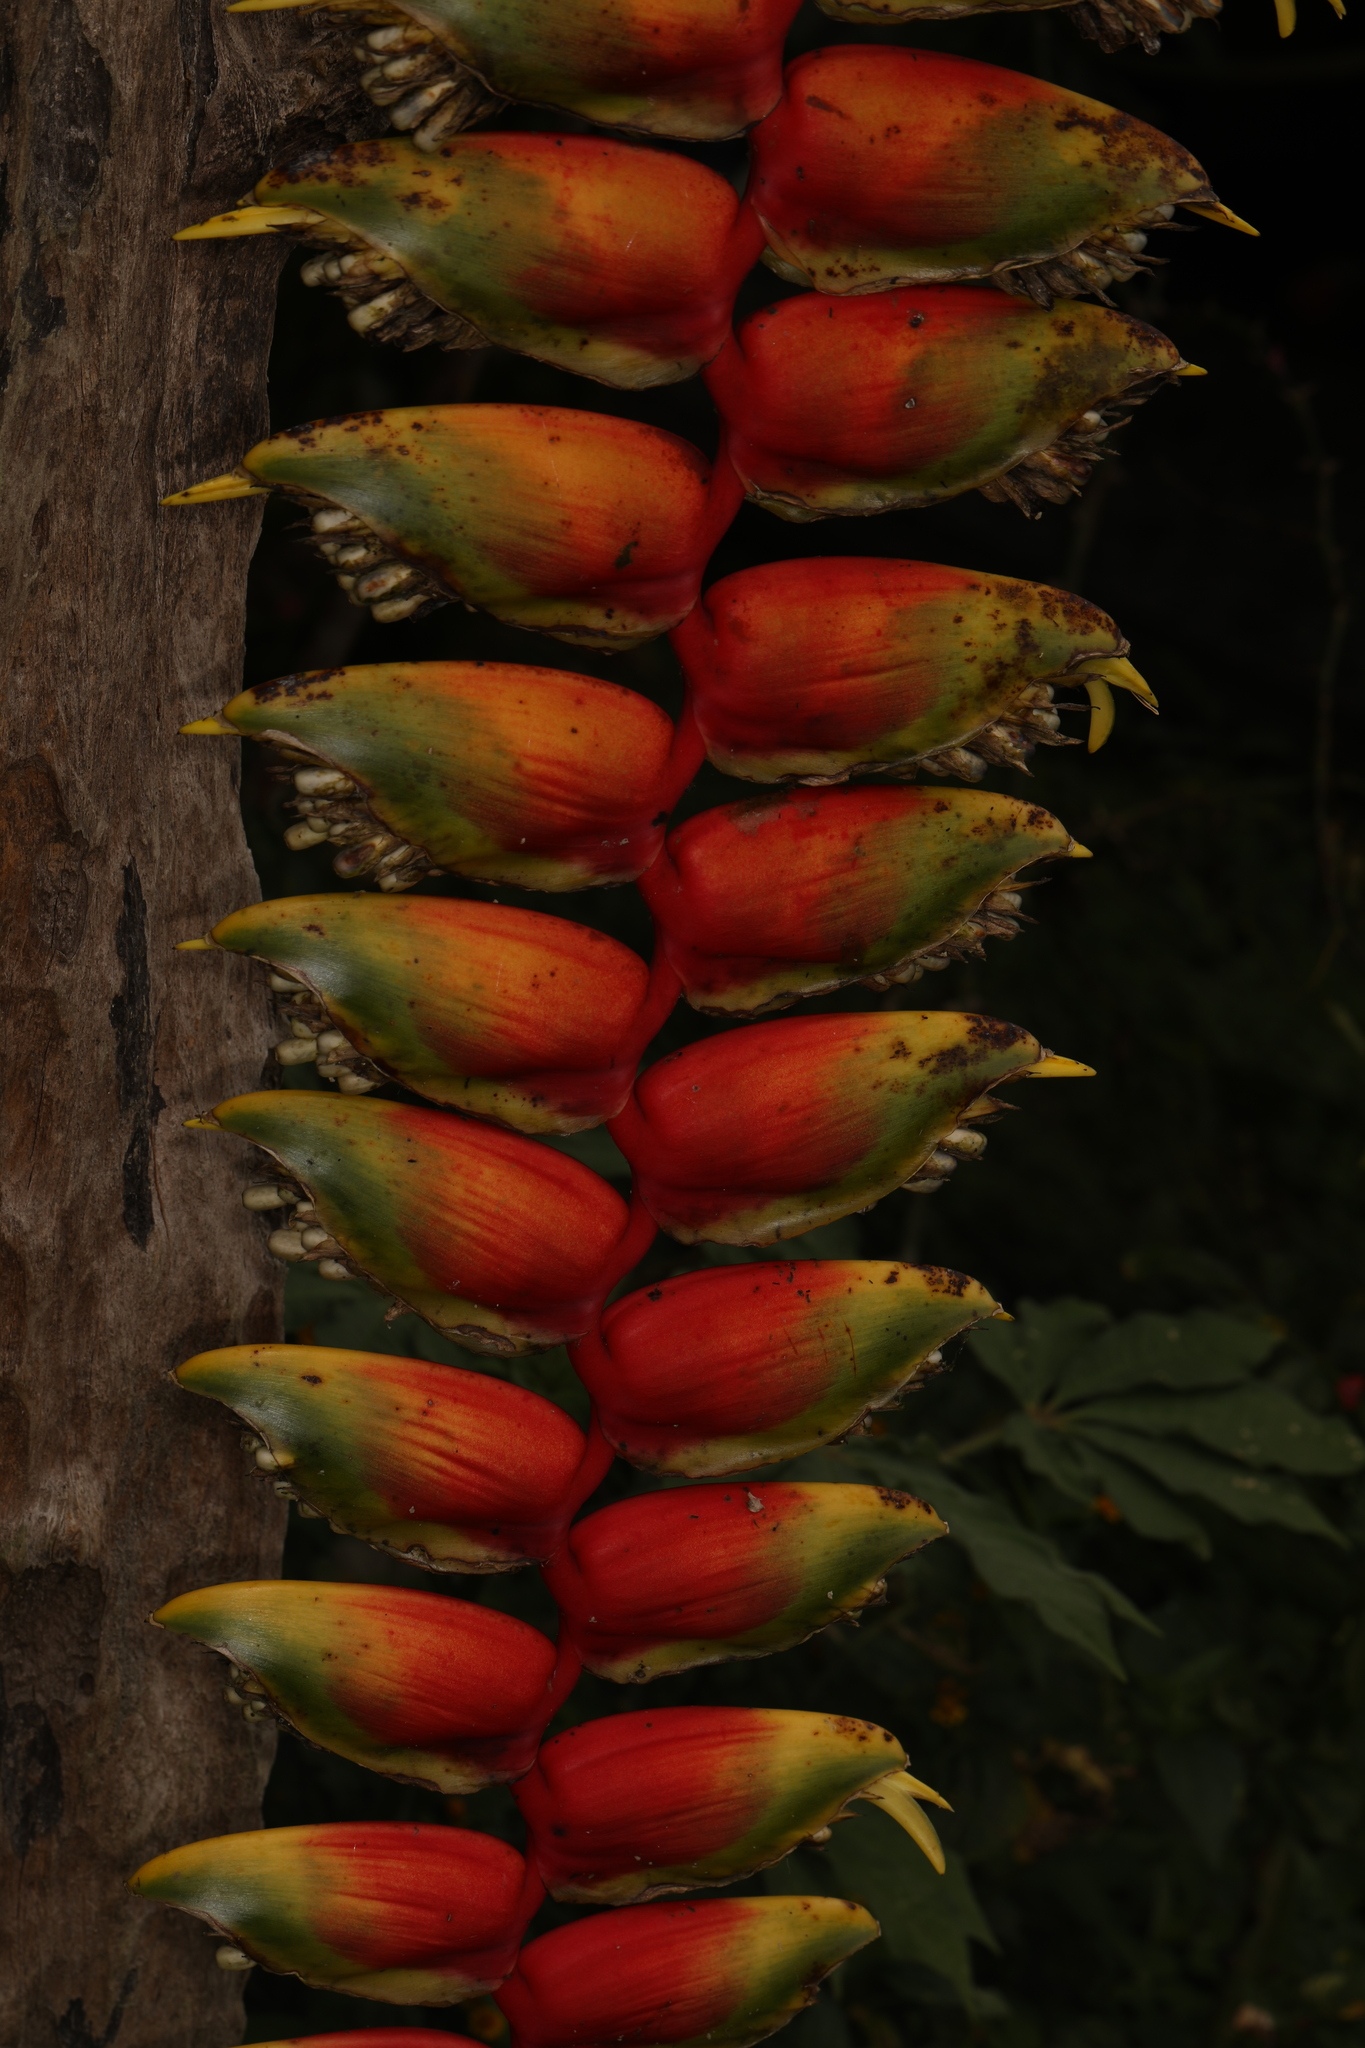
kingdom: Plantae
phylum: Tracheophyta
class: Liliopsida
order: Zingiberales
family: Heliconiaceae
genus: Heliconia
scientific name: Heliconia rostrata
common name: False bird of paradise
